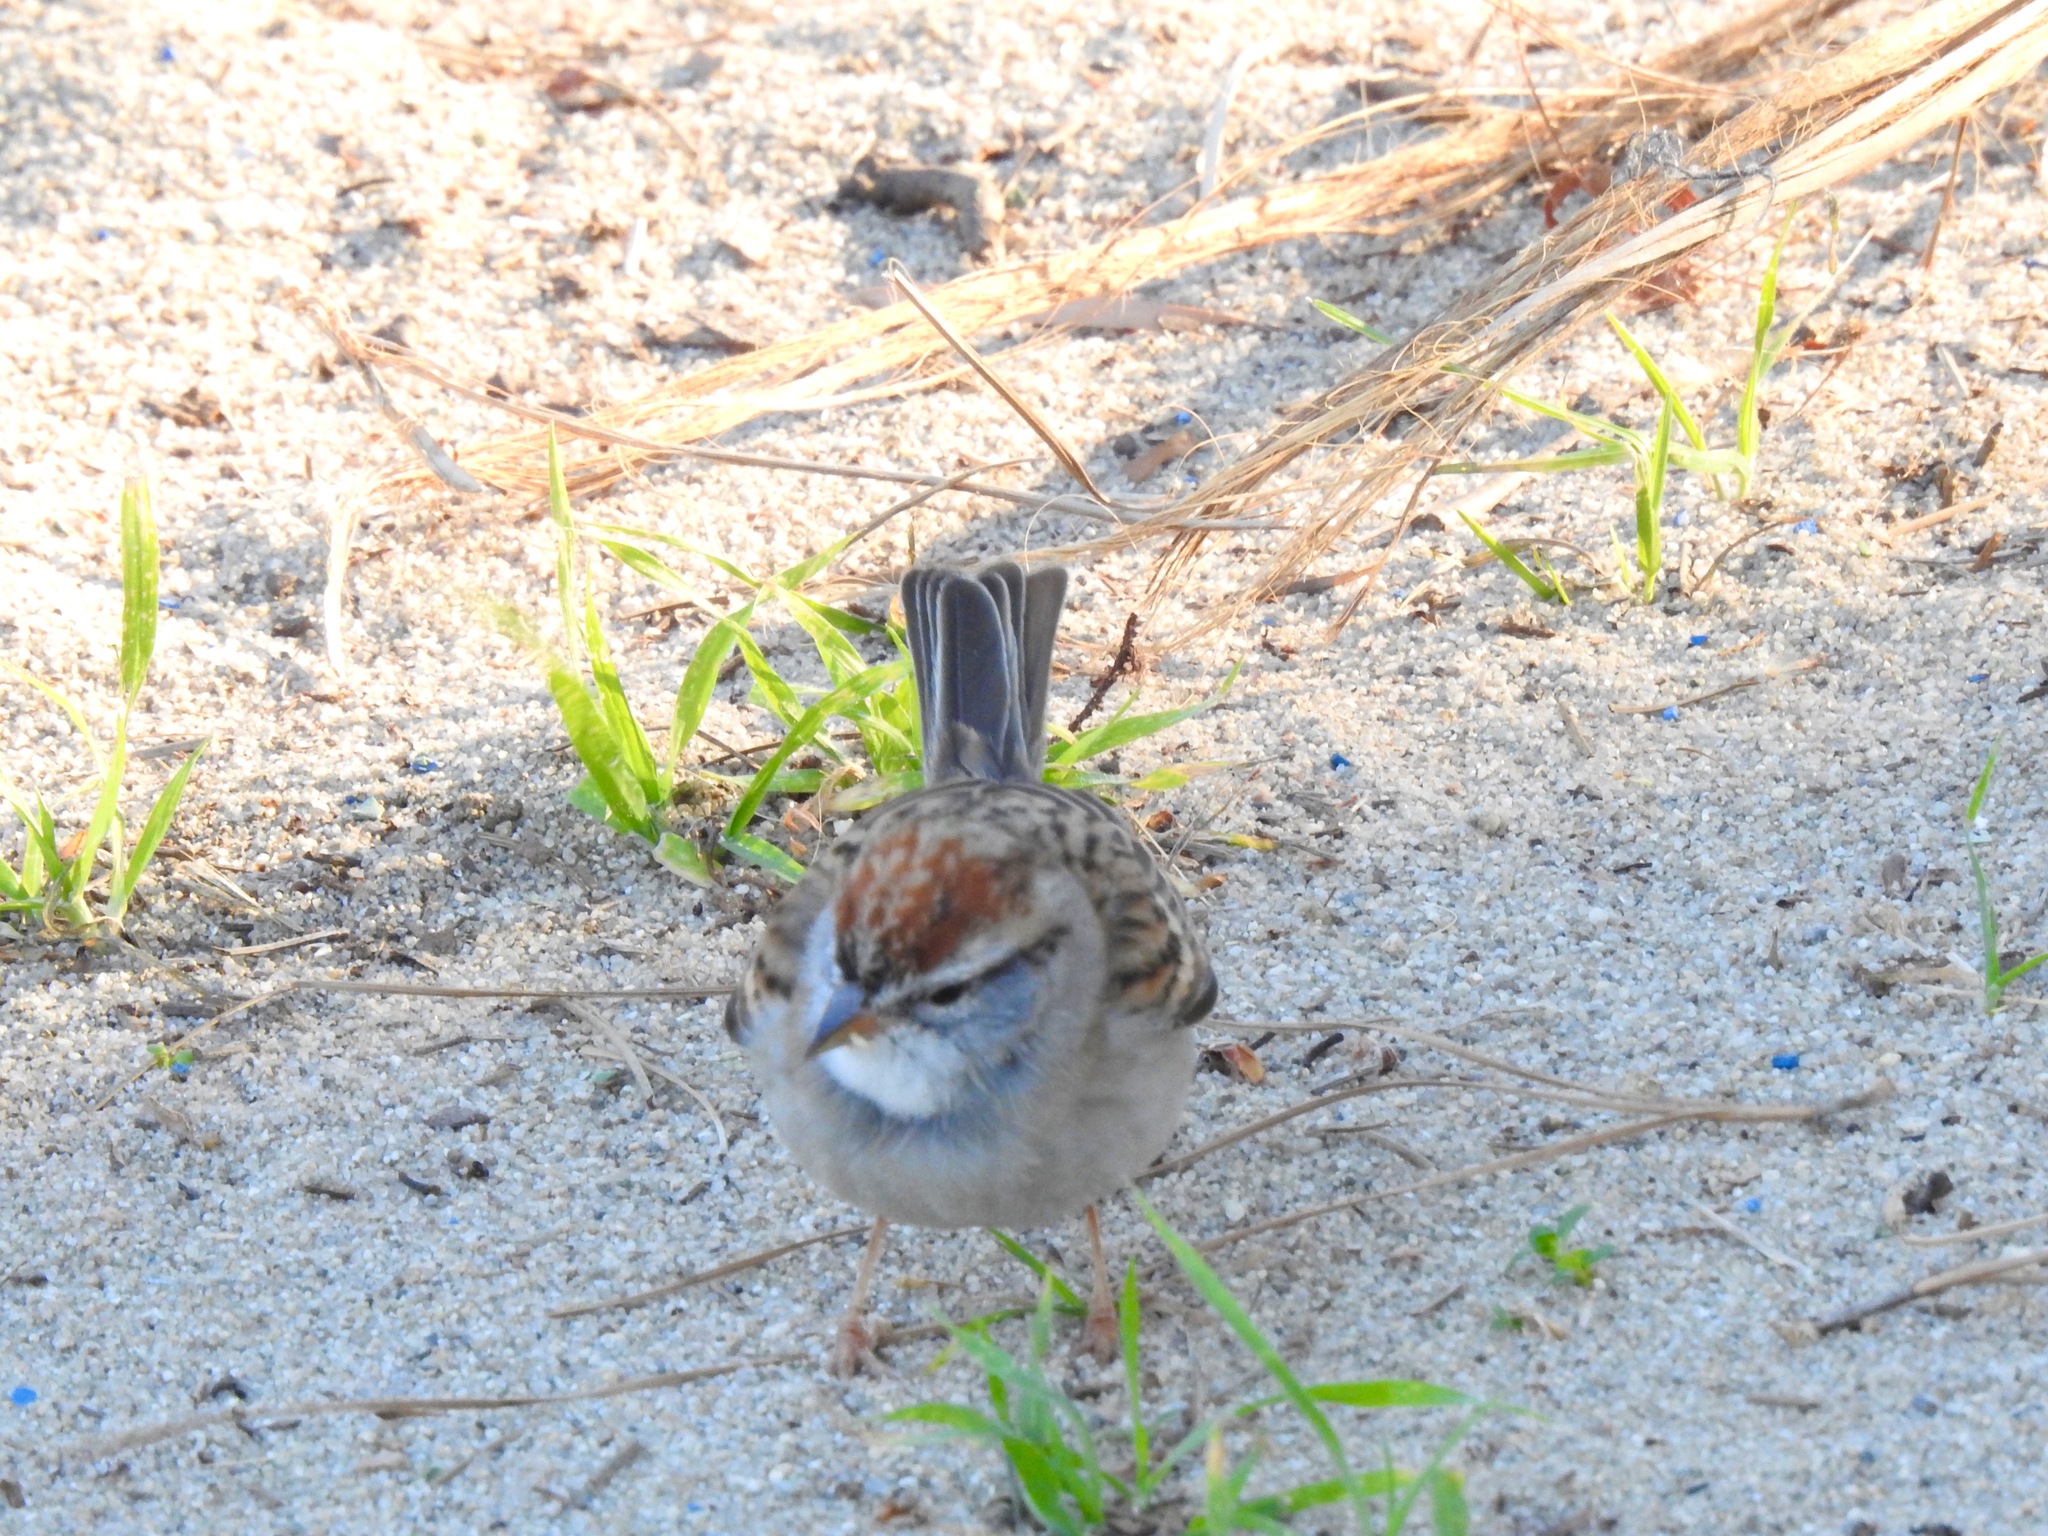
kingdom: Animalia
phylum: Chordata
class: Aves
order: Passeriformes
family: Passerellidae
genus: Spizella
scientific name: Spizella passerina
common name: Chipping sparrow
